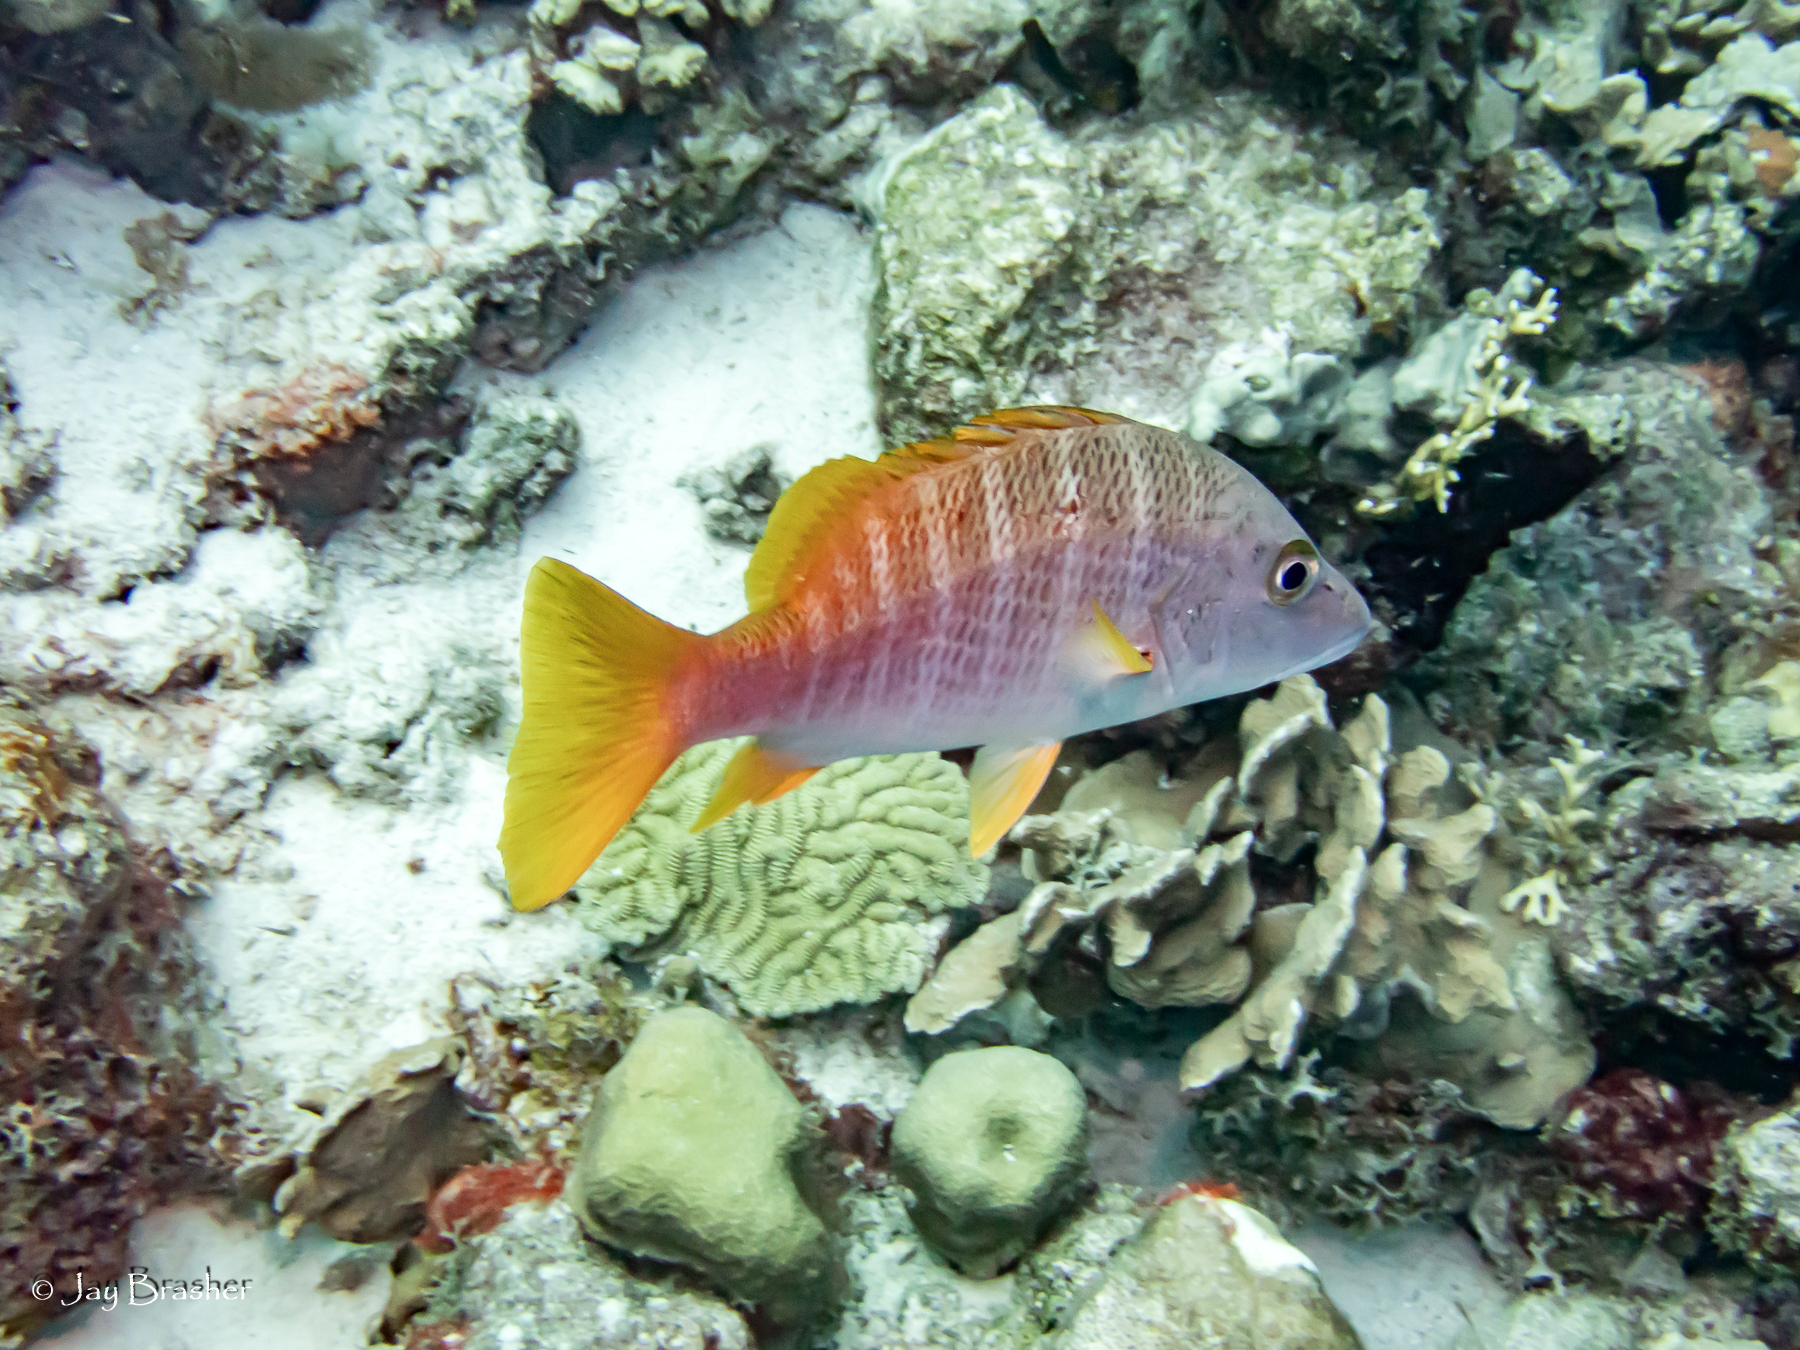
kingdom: Animalia
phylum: Chordata
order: Perciformes
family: Lutjanidae
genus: Lutjanus
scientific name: Lutjanus apodus
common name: Schoolmaster
